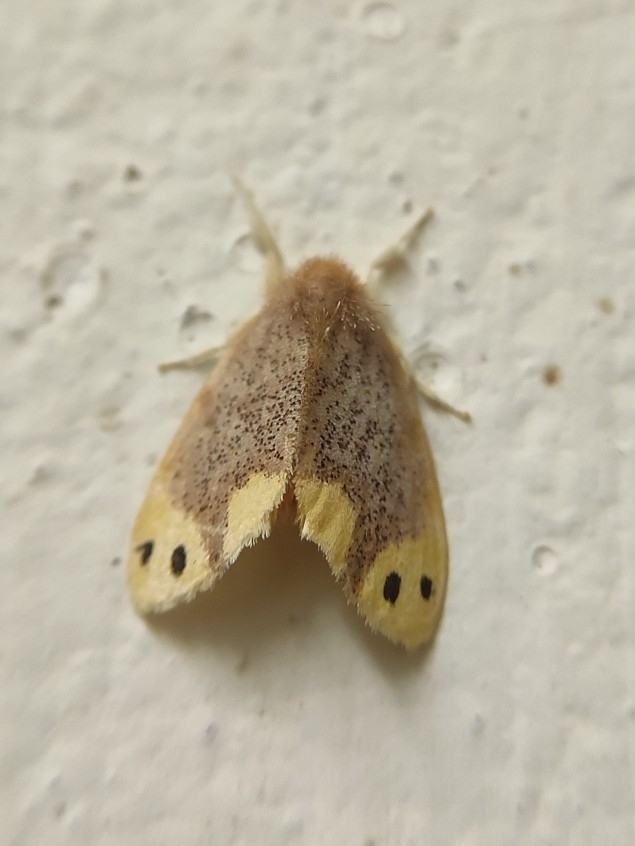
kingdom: Animalia
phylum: Arthropoda
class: Insecta
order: Lepidoptera
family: Erebidae
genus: Arna
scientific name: Arna bipunctapex
